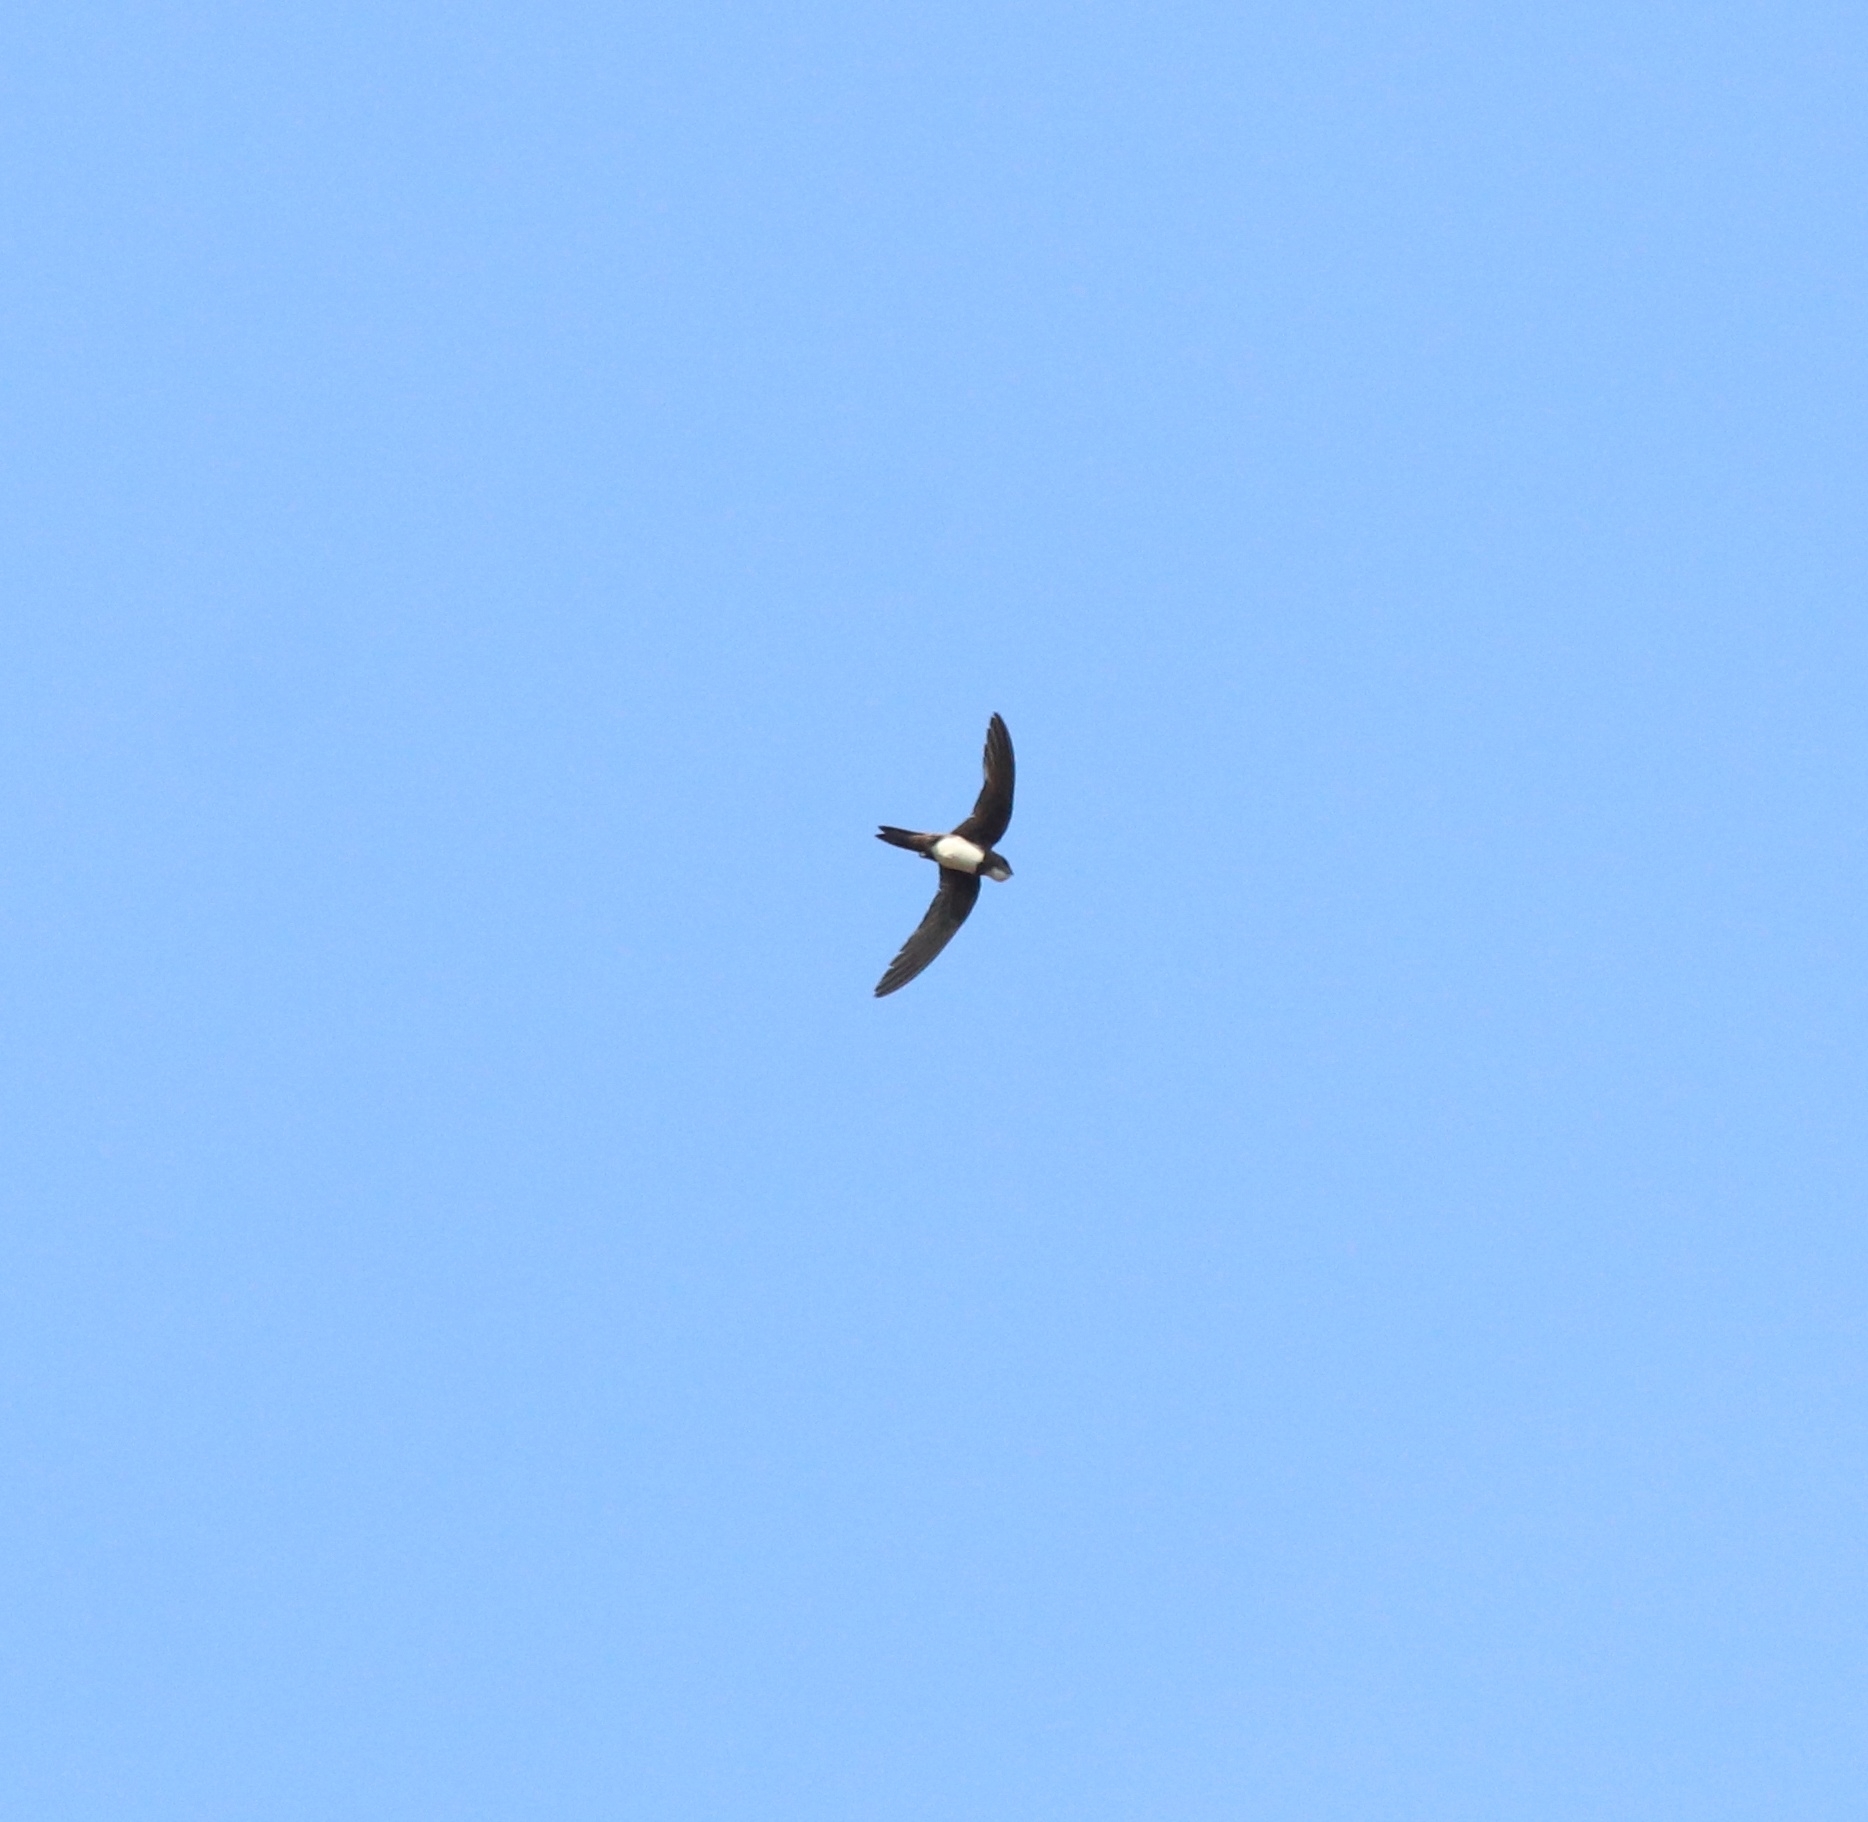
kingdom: Animalia
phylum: Chordata
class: Aves
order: Apodiformes
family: Apodidae
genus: Tachymarptis
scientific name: Tachymarptis melba
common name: Alpine swift
